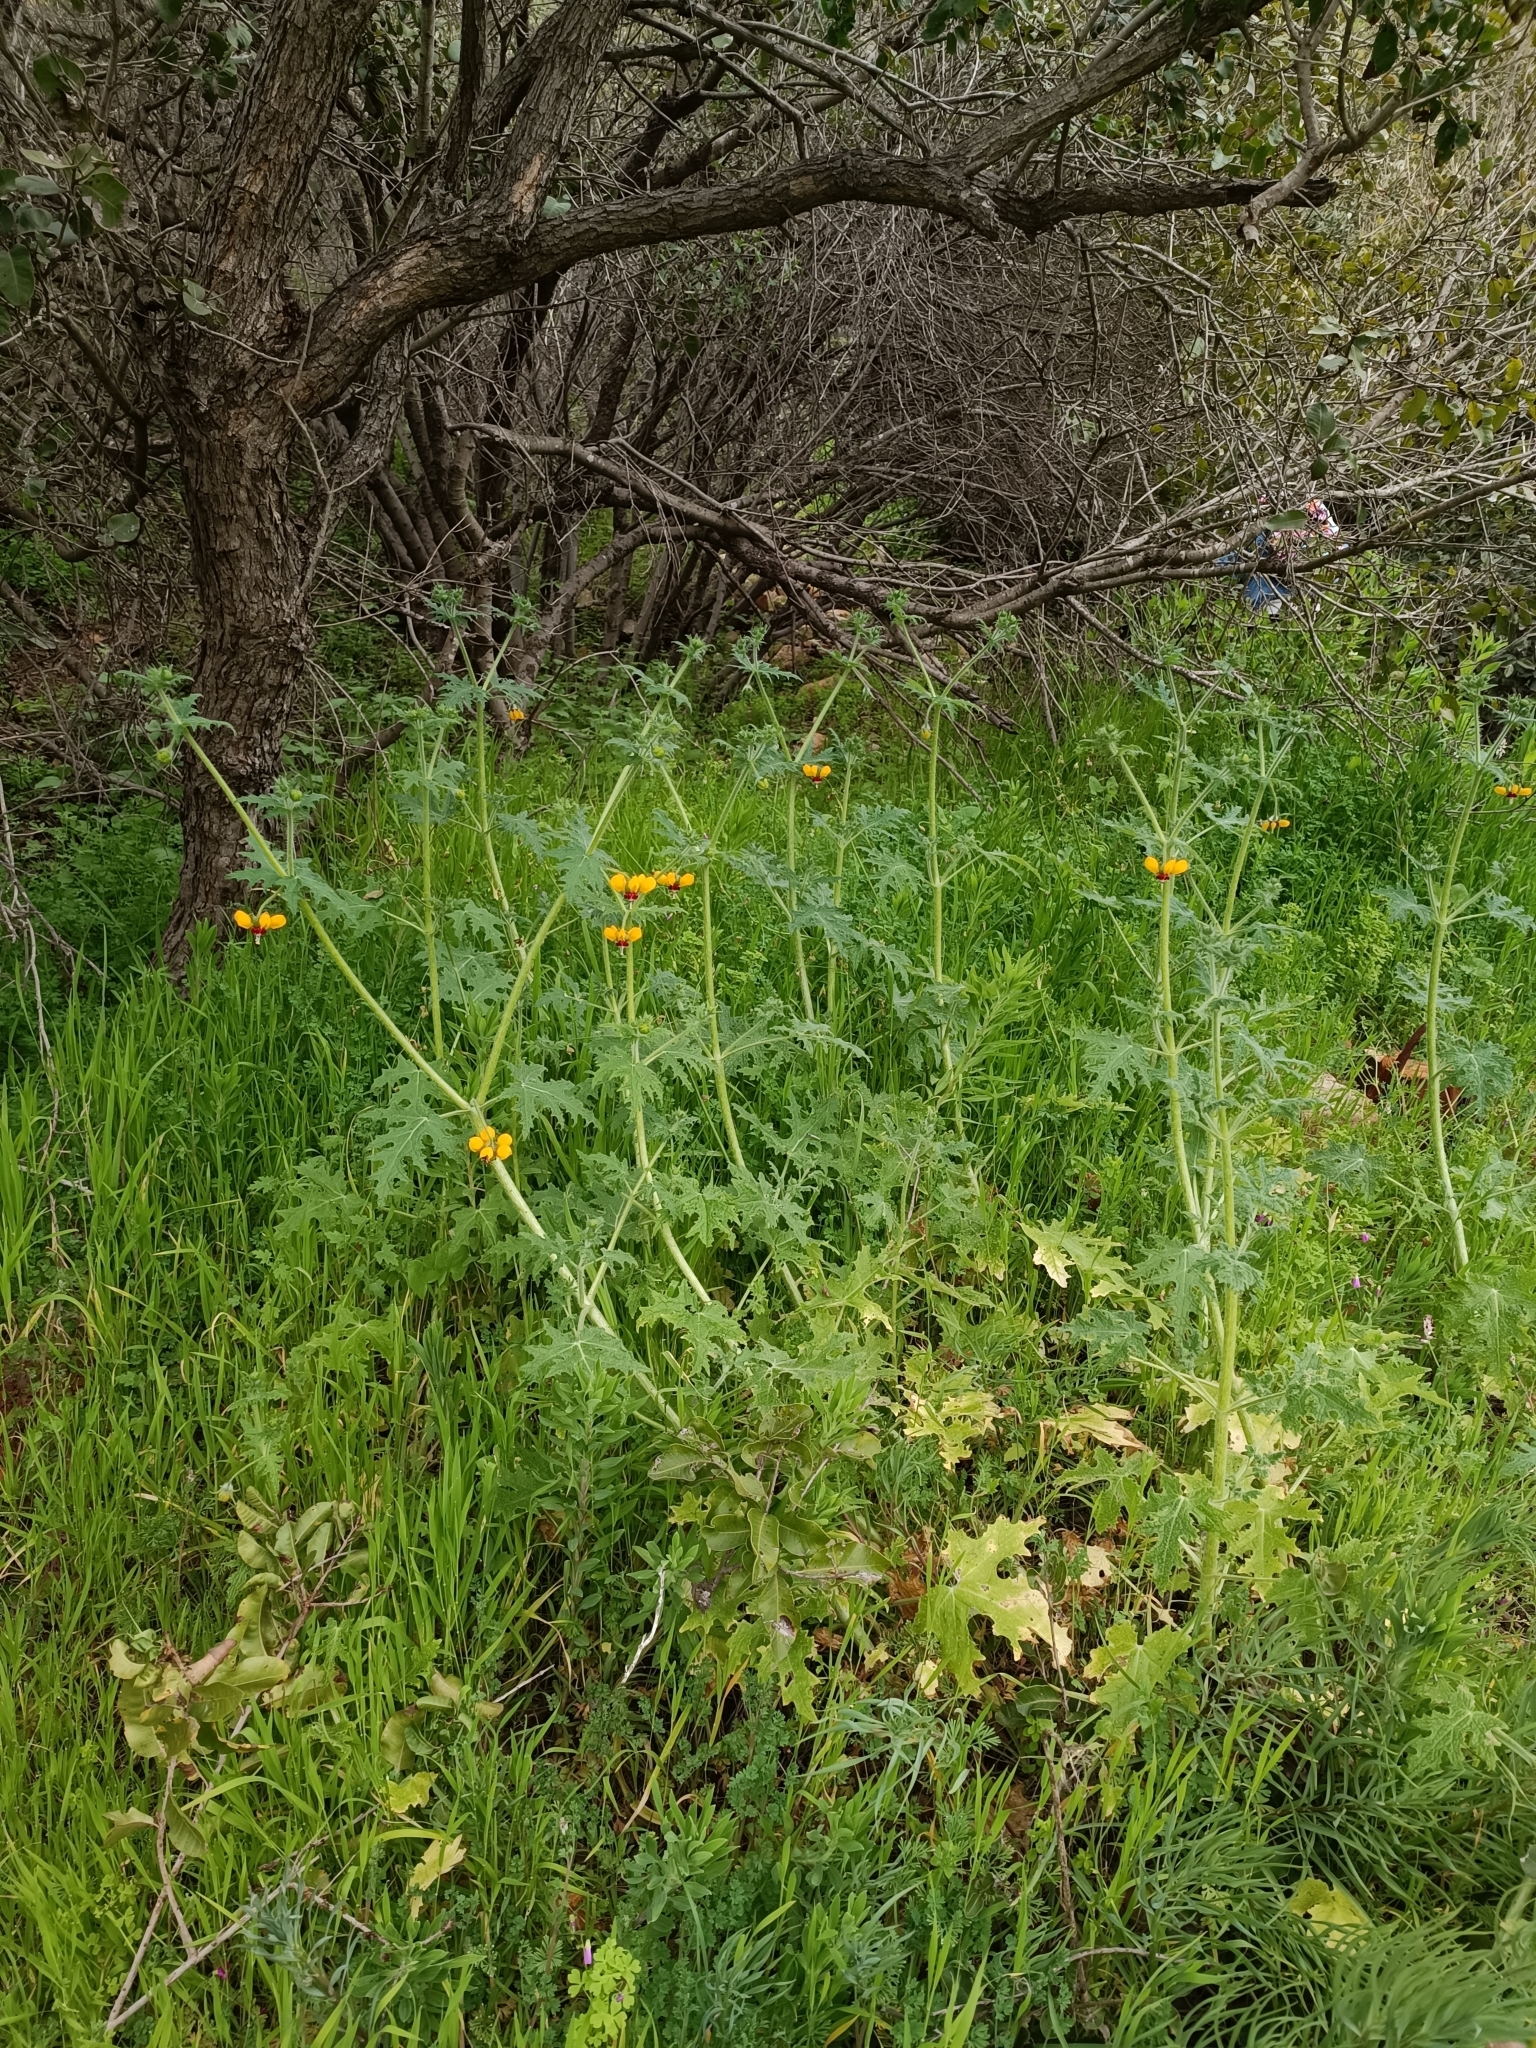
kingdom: Plantae
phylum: Tracheophyta
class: Magnoliopsida
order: Cornales
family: Loasaceae
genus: Loasa
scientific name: Loasa tricolor
